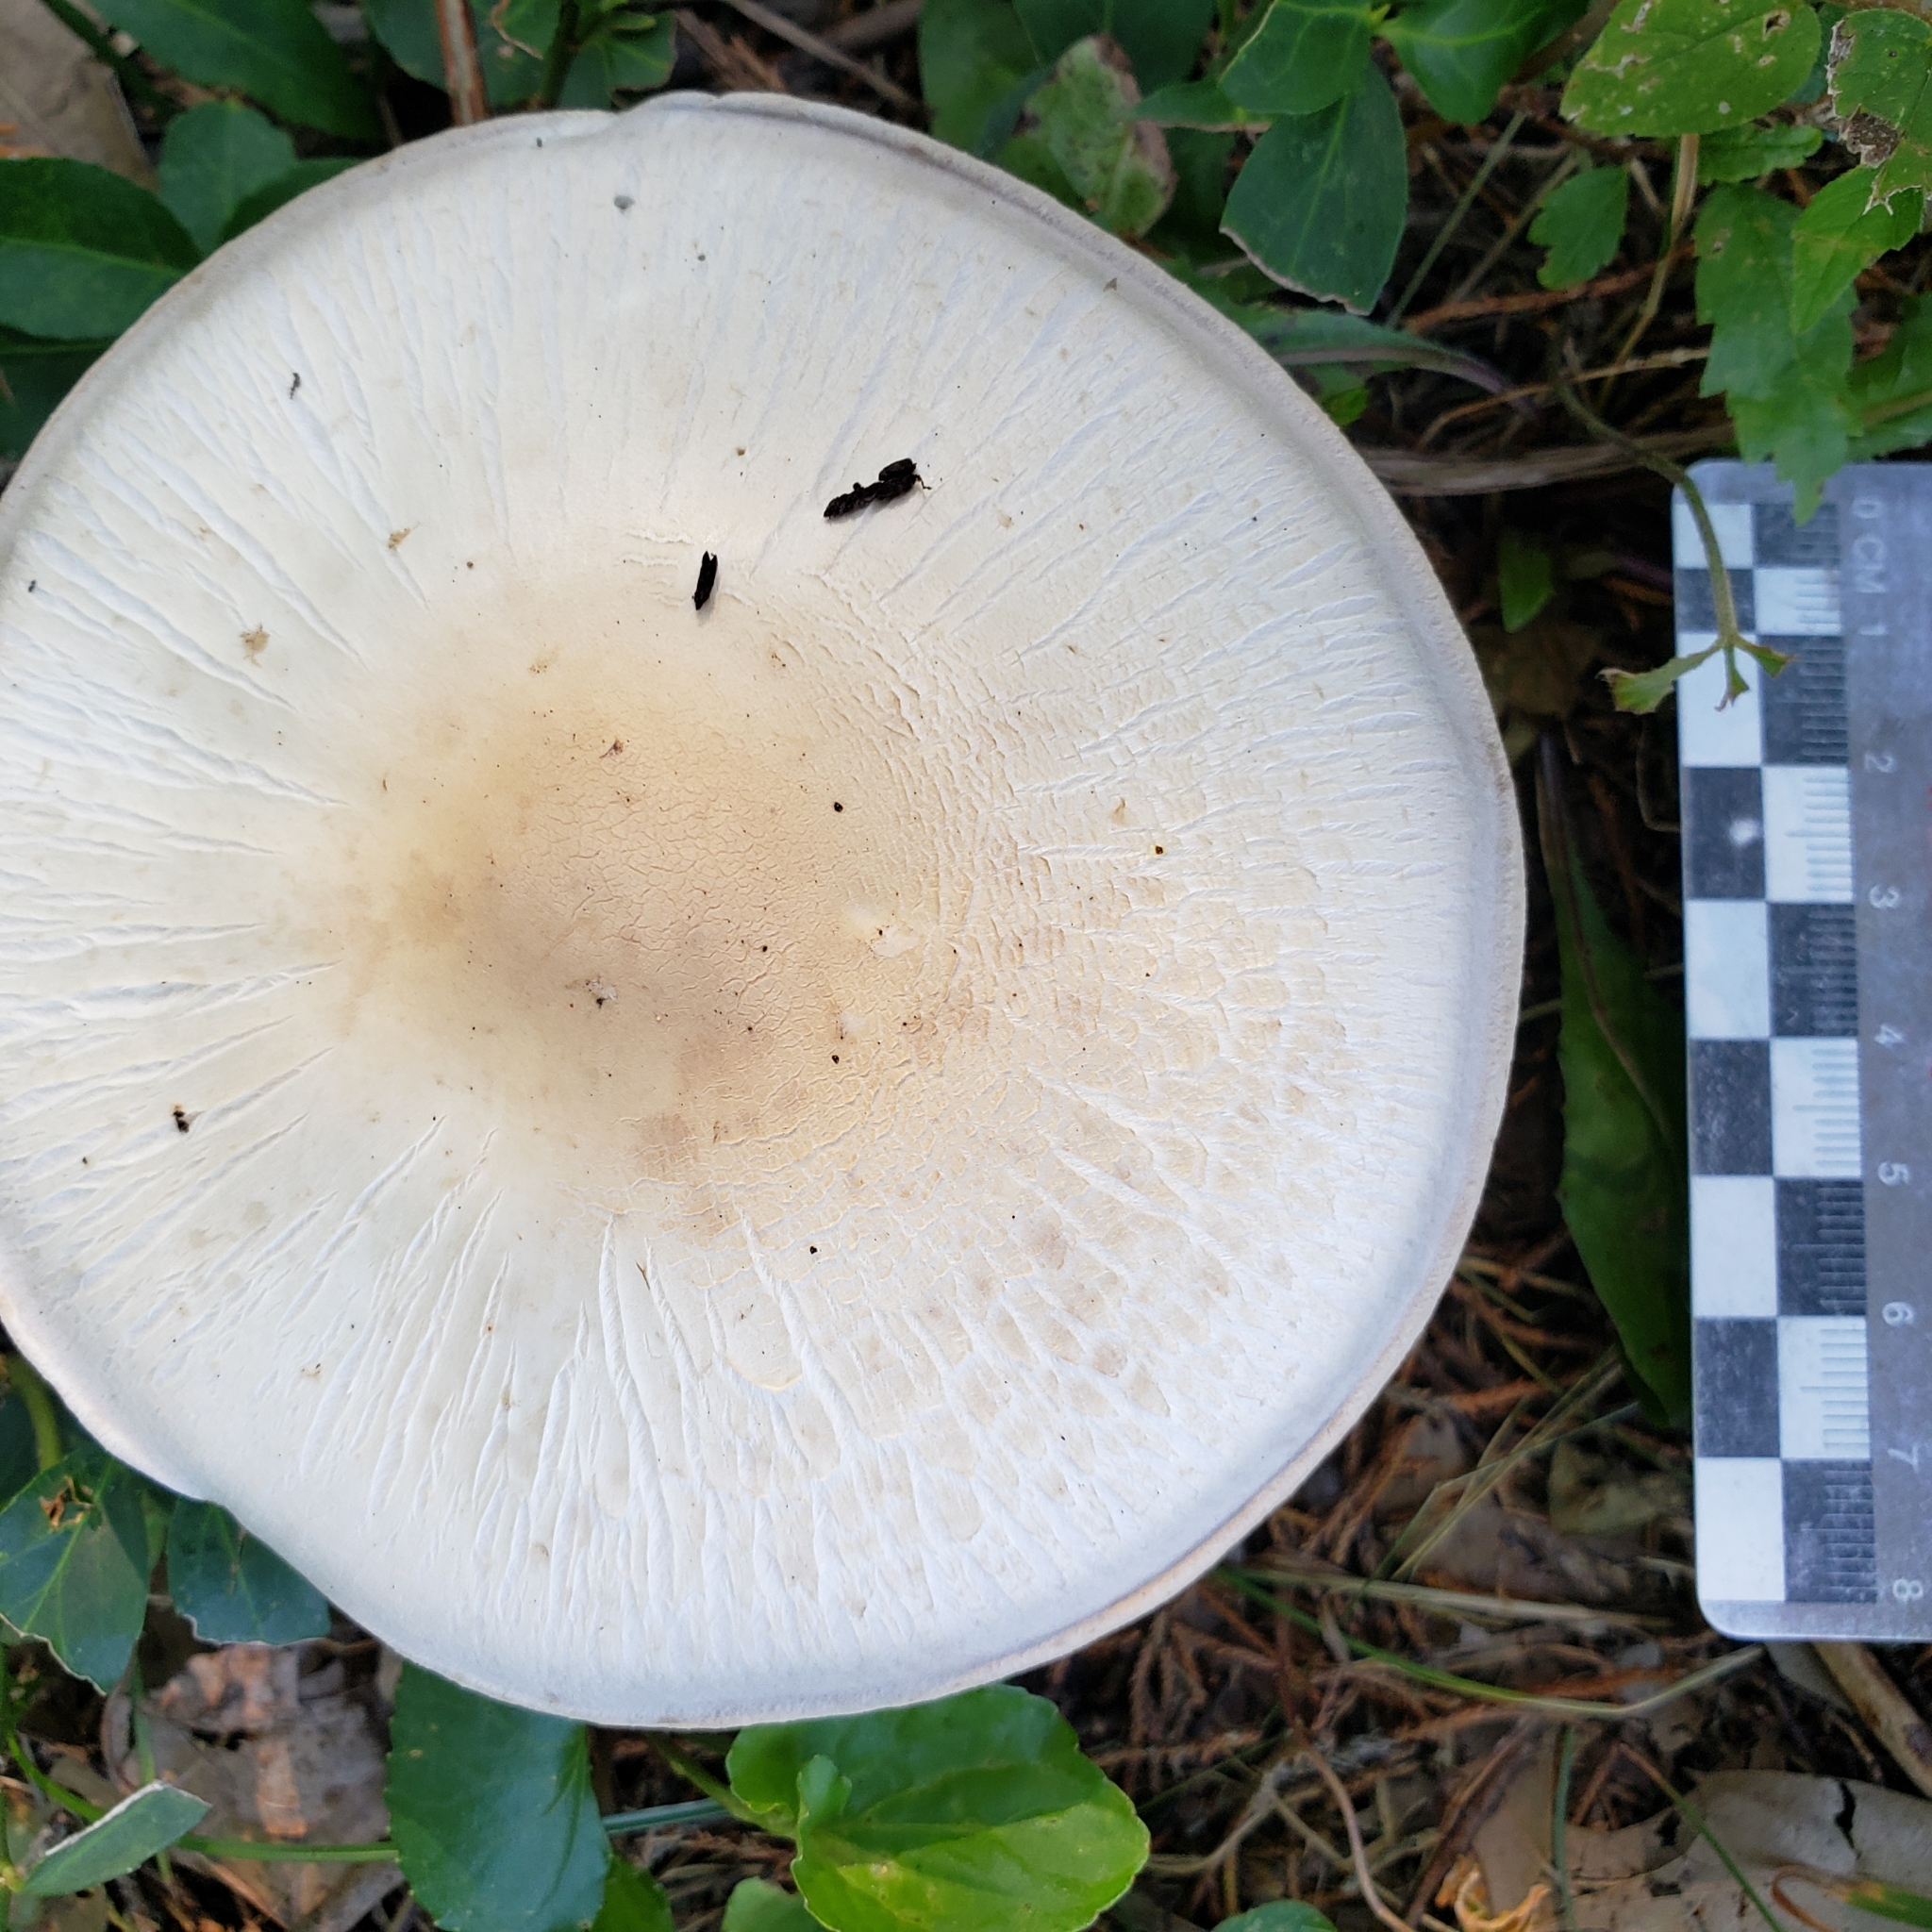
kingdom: Fungi
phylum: Basidiomycota
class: Agaricomycetes
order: Agaricales
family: Agaricaceae
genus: Agaricus
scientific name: Agaricus arvensis
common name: Horse mushroom
